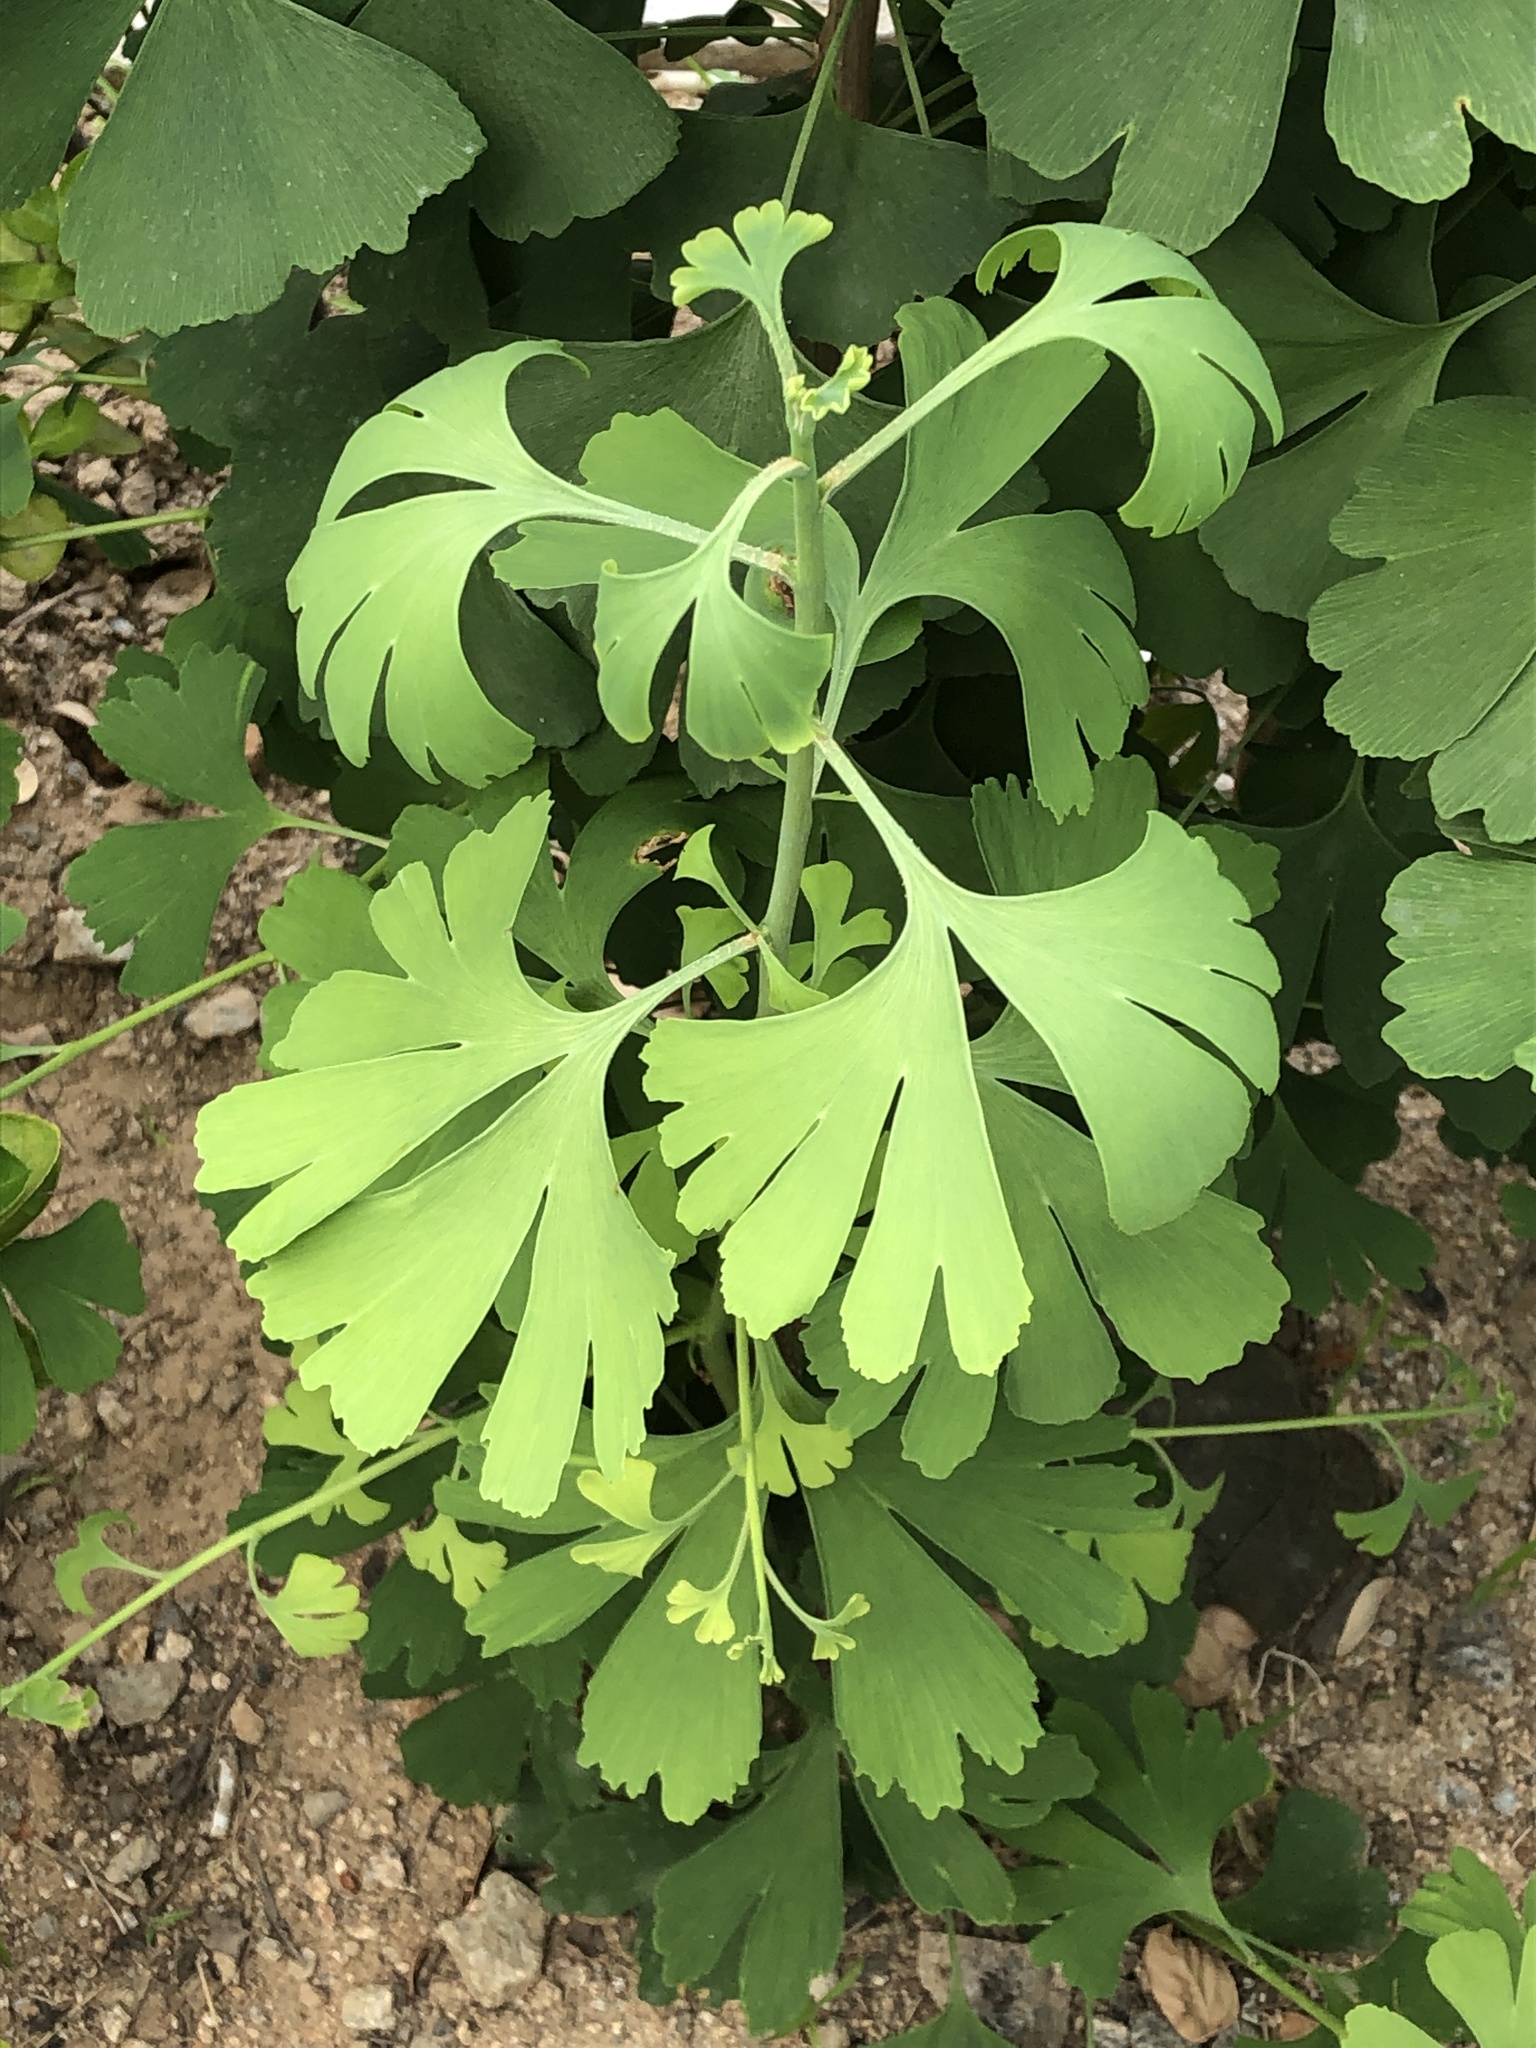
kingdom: Plantae
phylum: Tracheophyta
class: Ginkgoopsida
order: Ginkgoales
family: Ginkgoaceae
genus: Ginkgo
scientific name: Ginkgo biloba
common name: Ginkgo
